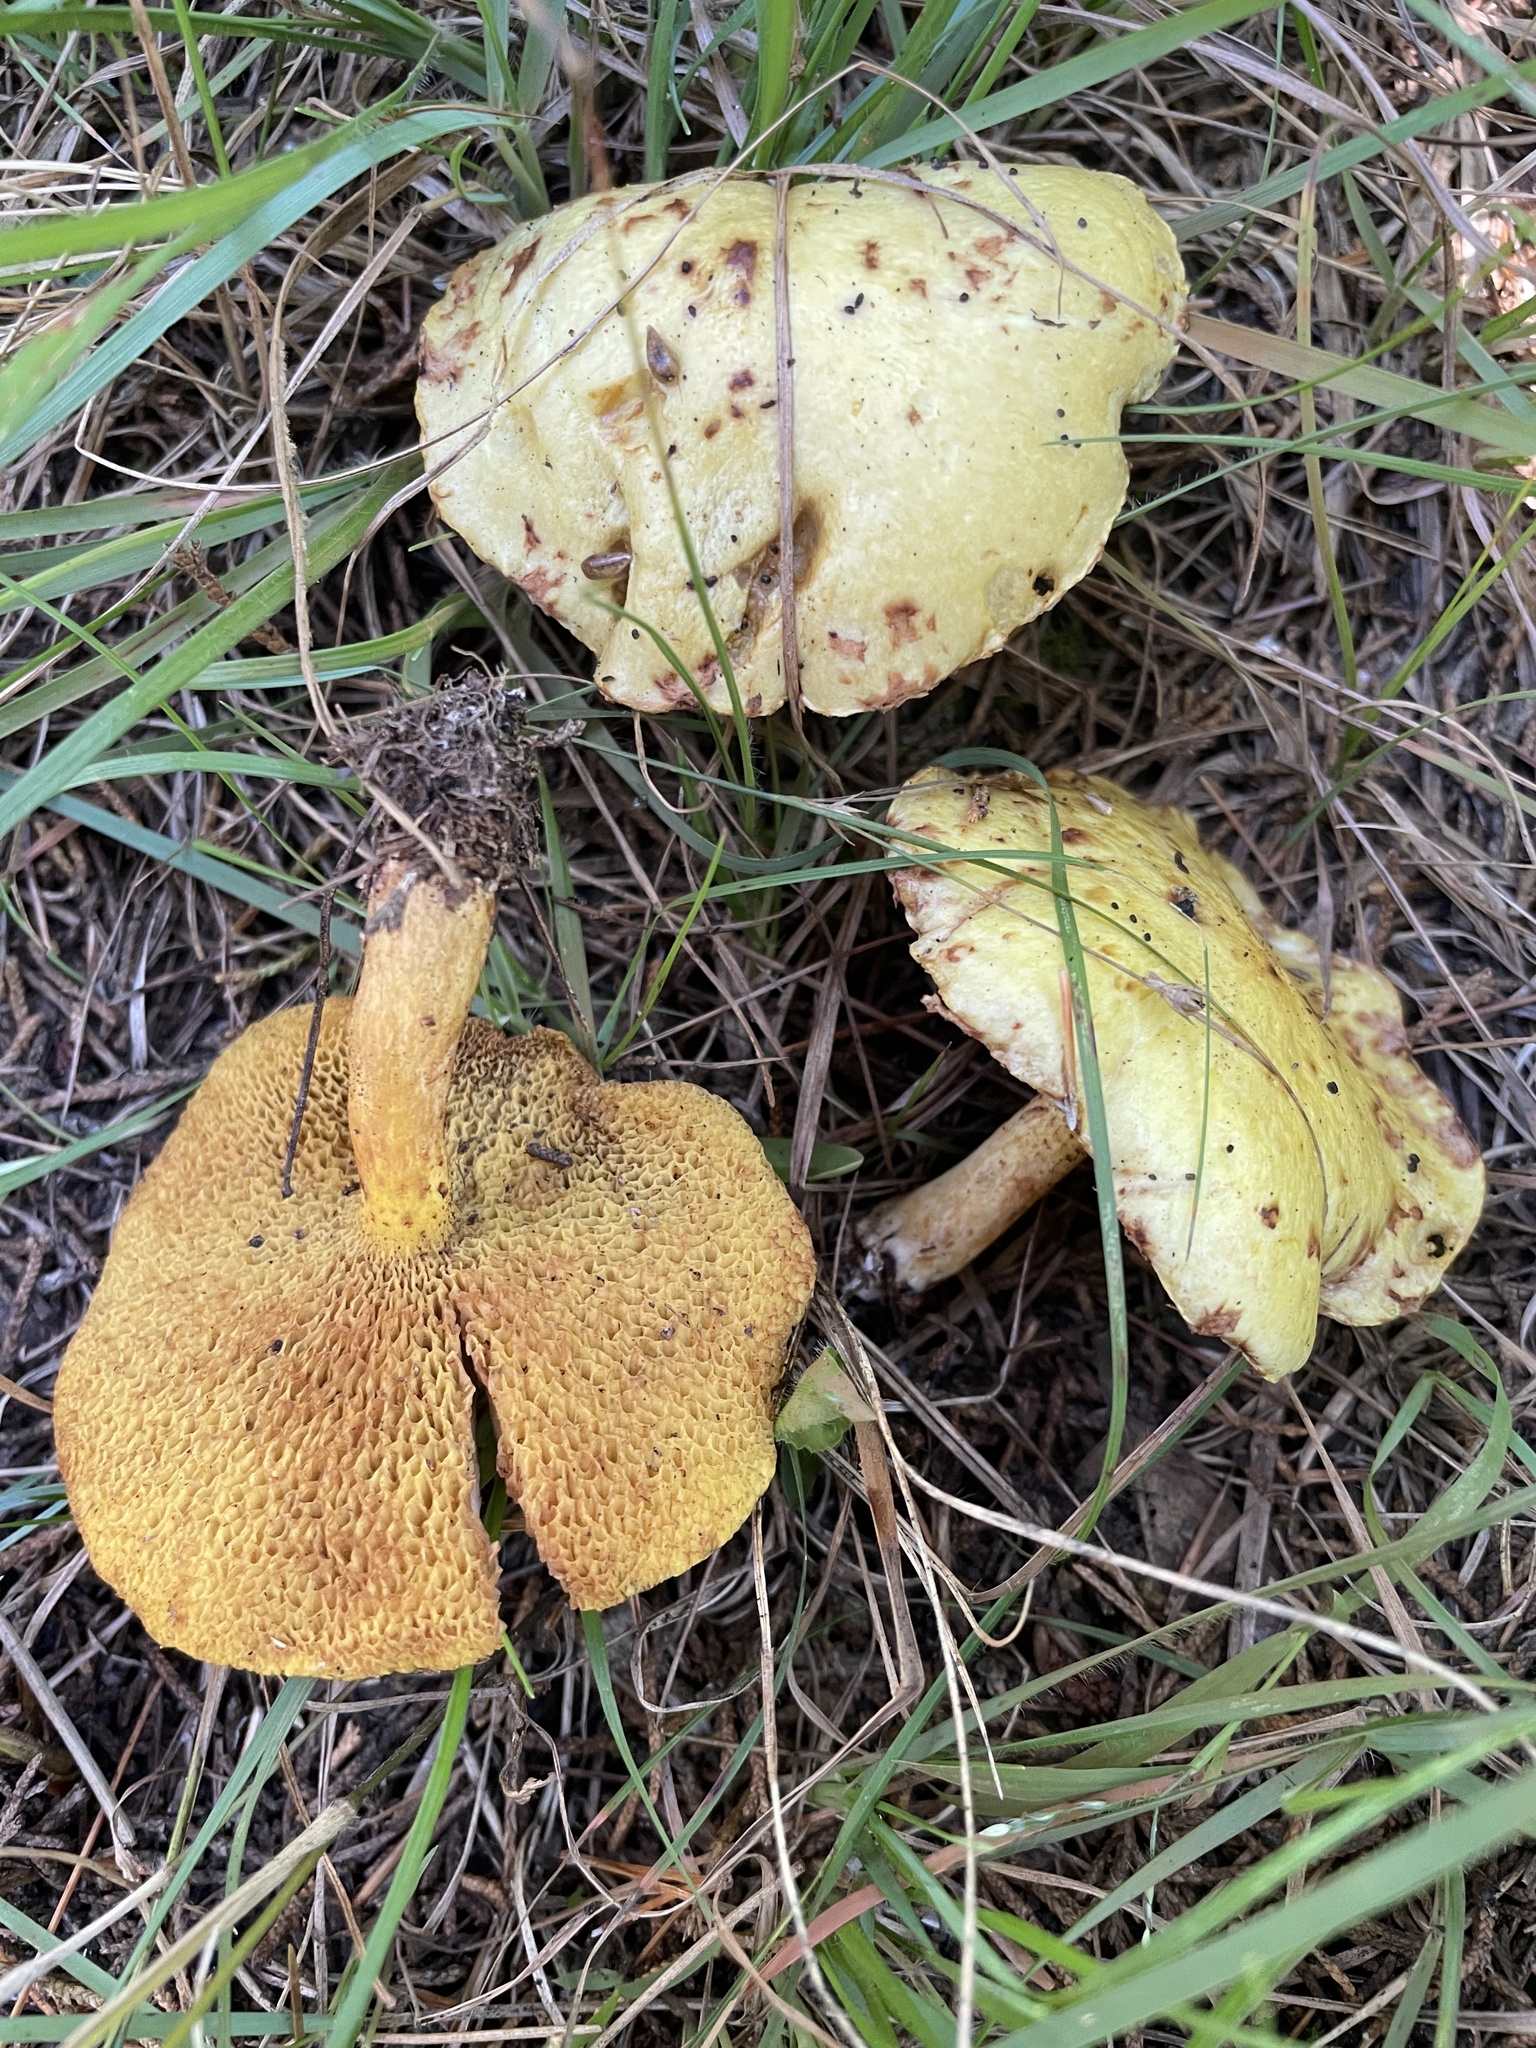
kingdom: Fungi
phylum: Basidiomycota
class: Agaricomycetes
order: Boletales
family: Suillaceae
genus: Suillus
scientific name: Suillus americanus
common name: Chicken fat mushroom
